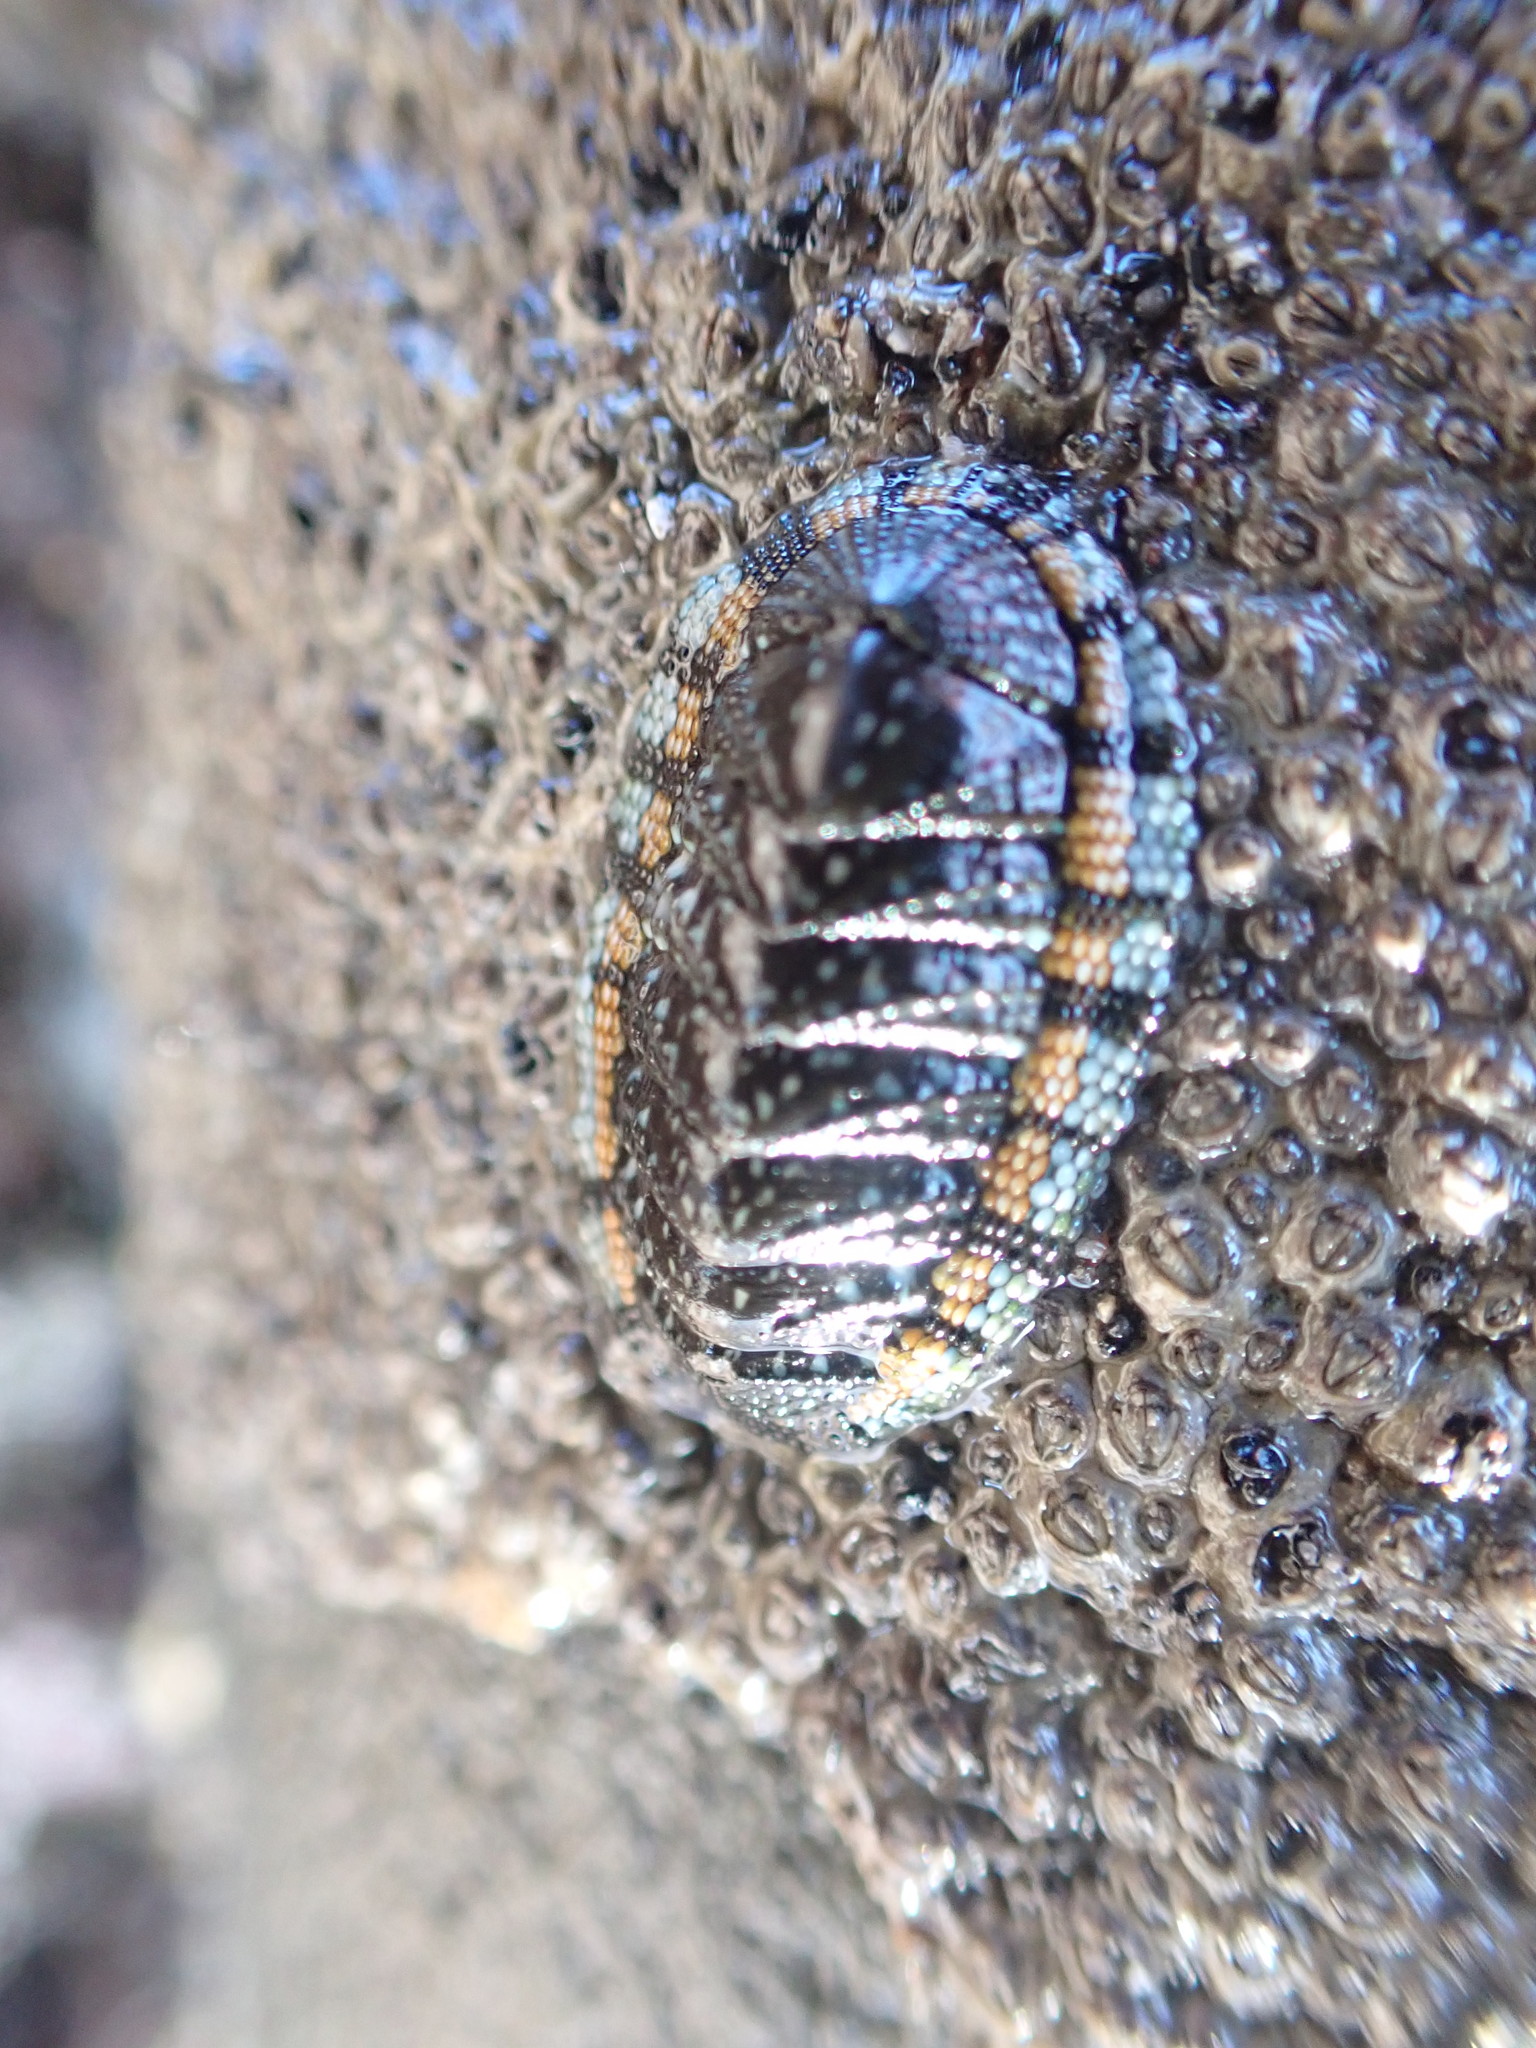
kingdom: Animalia
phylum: Mollusca
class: Polyplacophora
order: Chitonida
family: Chitonidae
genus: Sypharochiton
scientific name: Sypharochiton sinclairi
